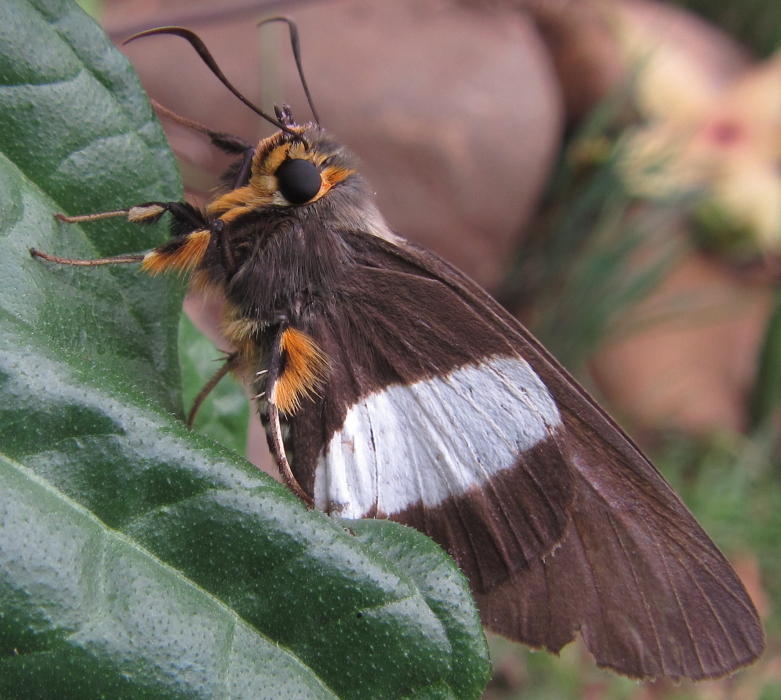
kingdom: Animalia
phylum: Arthropoda
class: Insecta
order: Lepidoptera
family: Hesperiidae
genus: Coeliades
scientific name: Coeliades forestan
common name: Striped policeman
